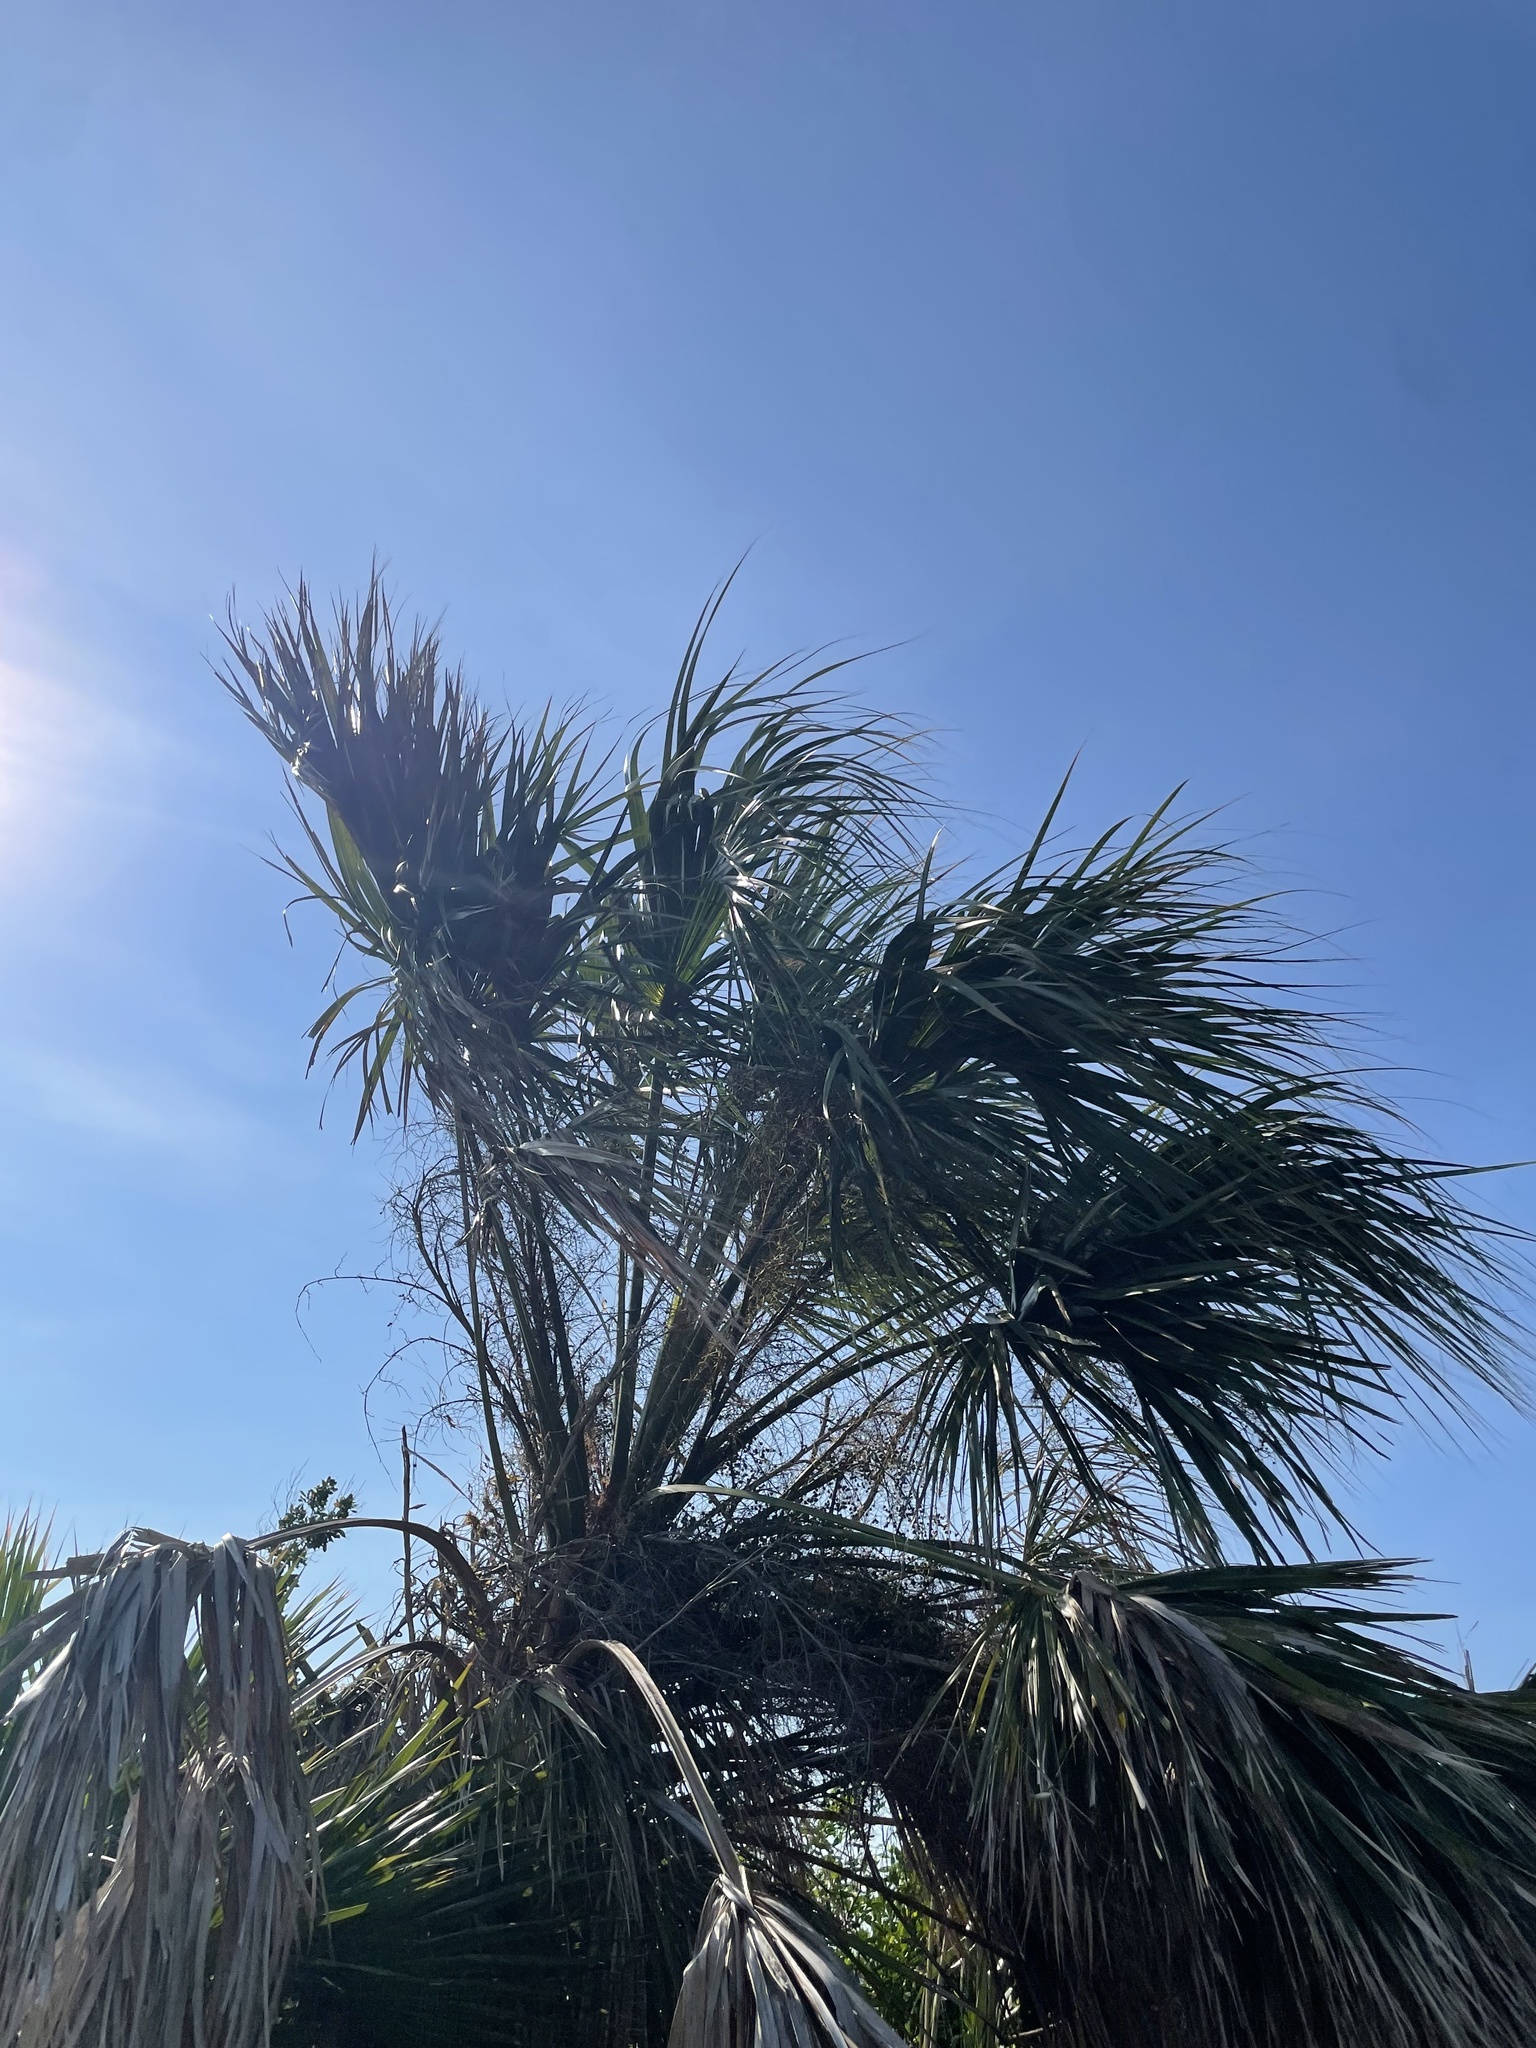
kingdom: Plantae
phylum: Tracheophyta
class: Liliopsida
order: Arecales
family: Arecaceae
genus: Sabal
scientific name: Sabal palmetto
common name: Blue palmetto
